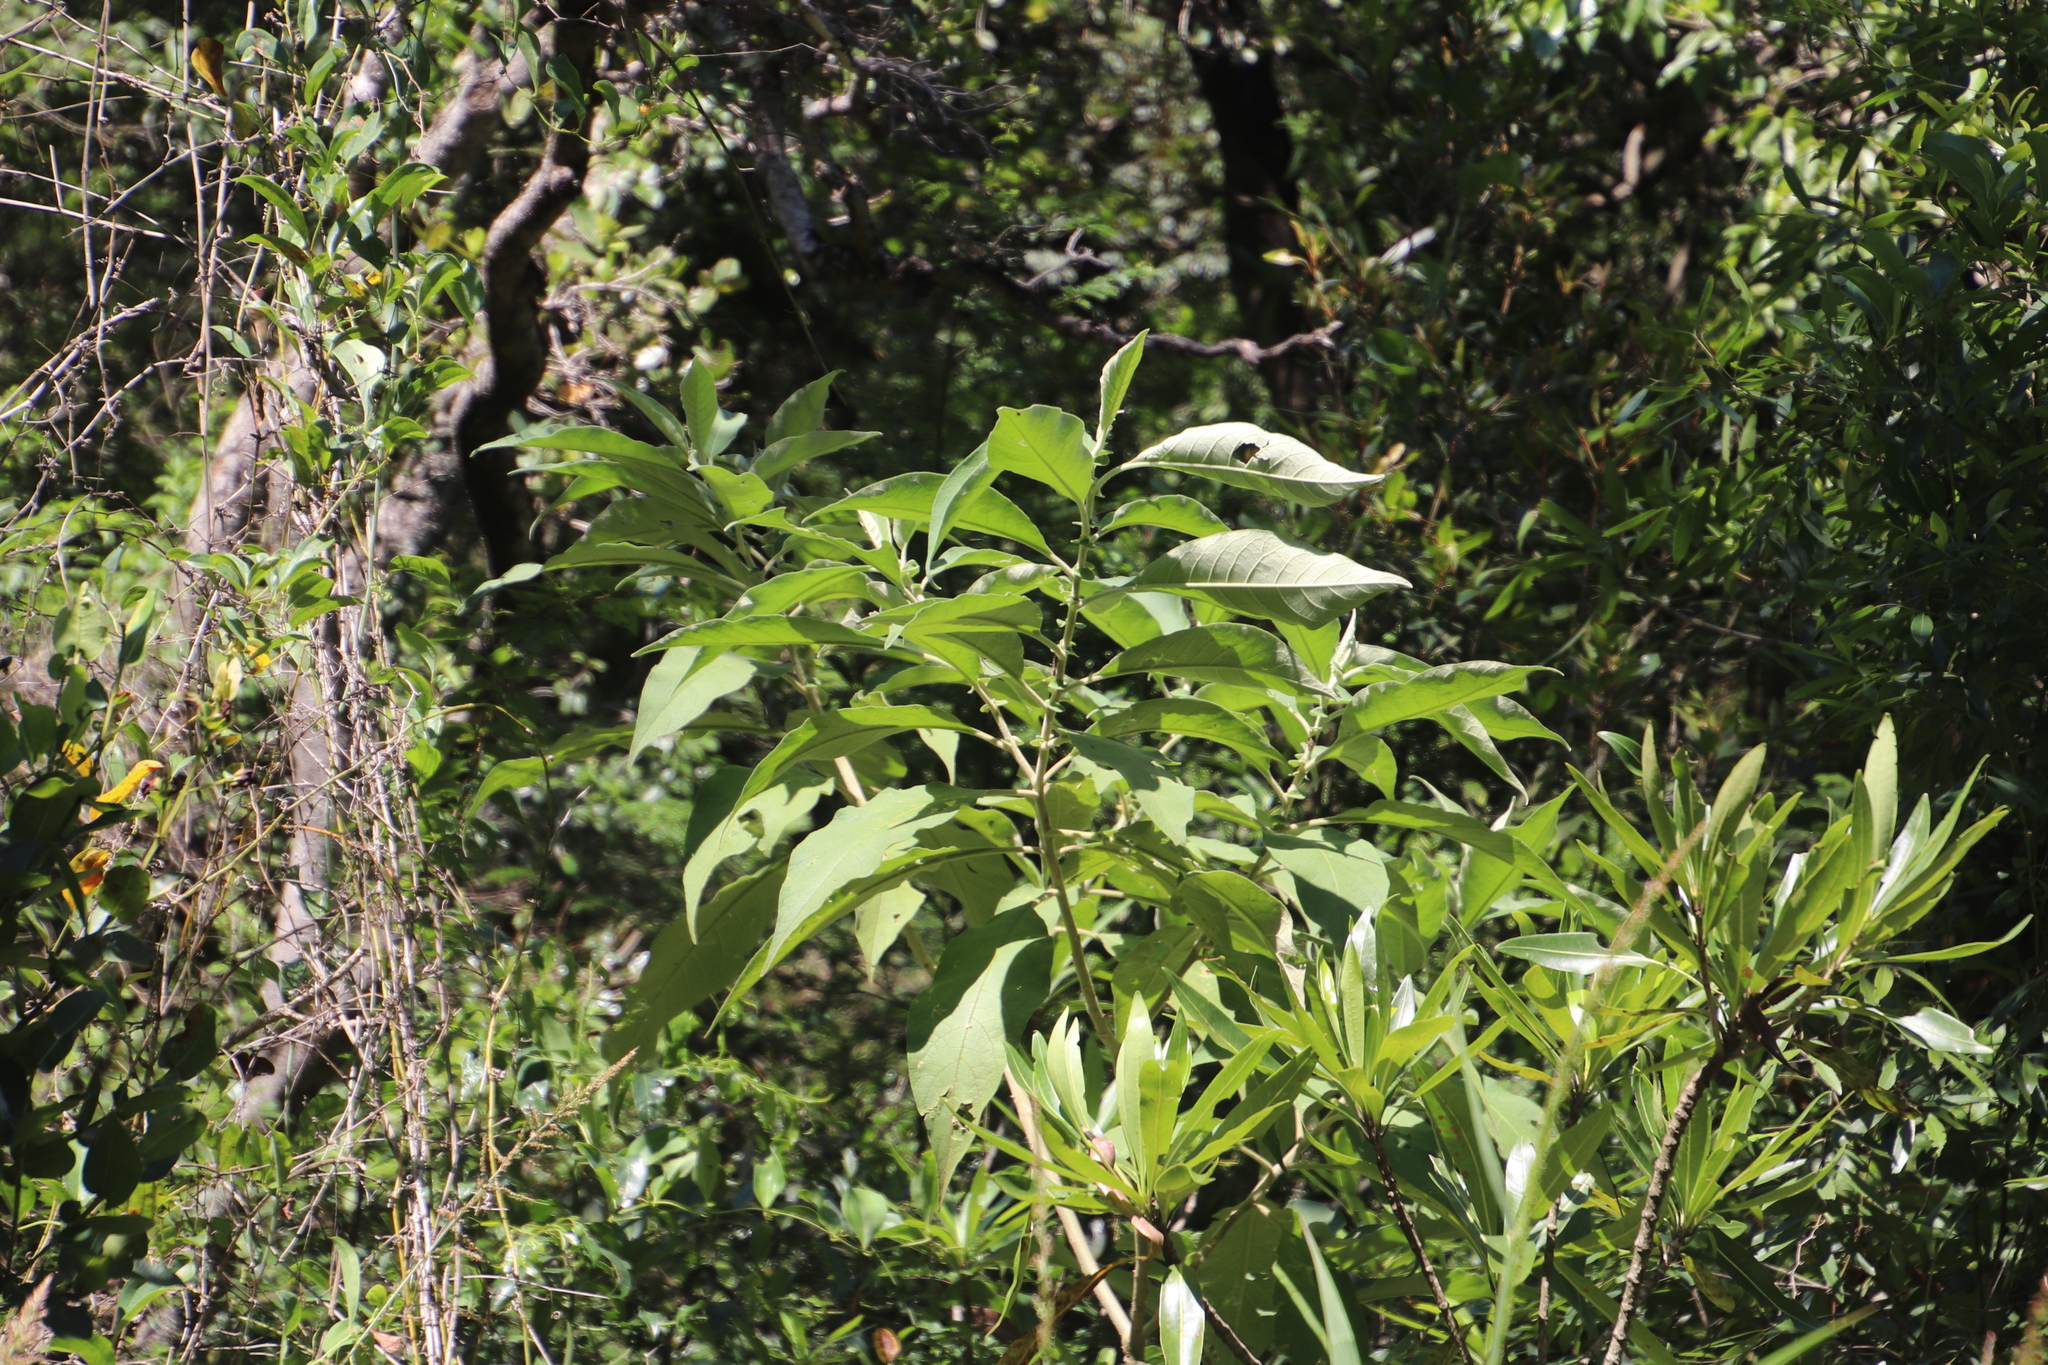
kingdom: Plantae
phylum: Tracheophyta
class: Magnoliopsida
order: Solanales
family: Solanaceae
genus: Solanum
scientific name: Solanum mauritianum
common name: Earleaf nightshade
